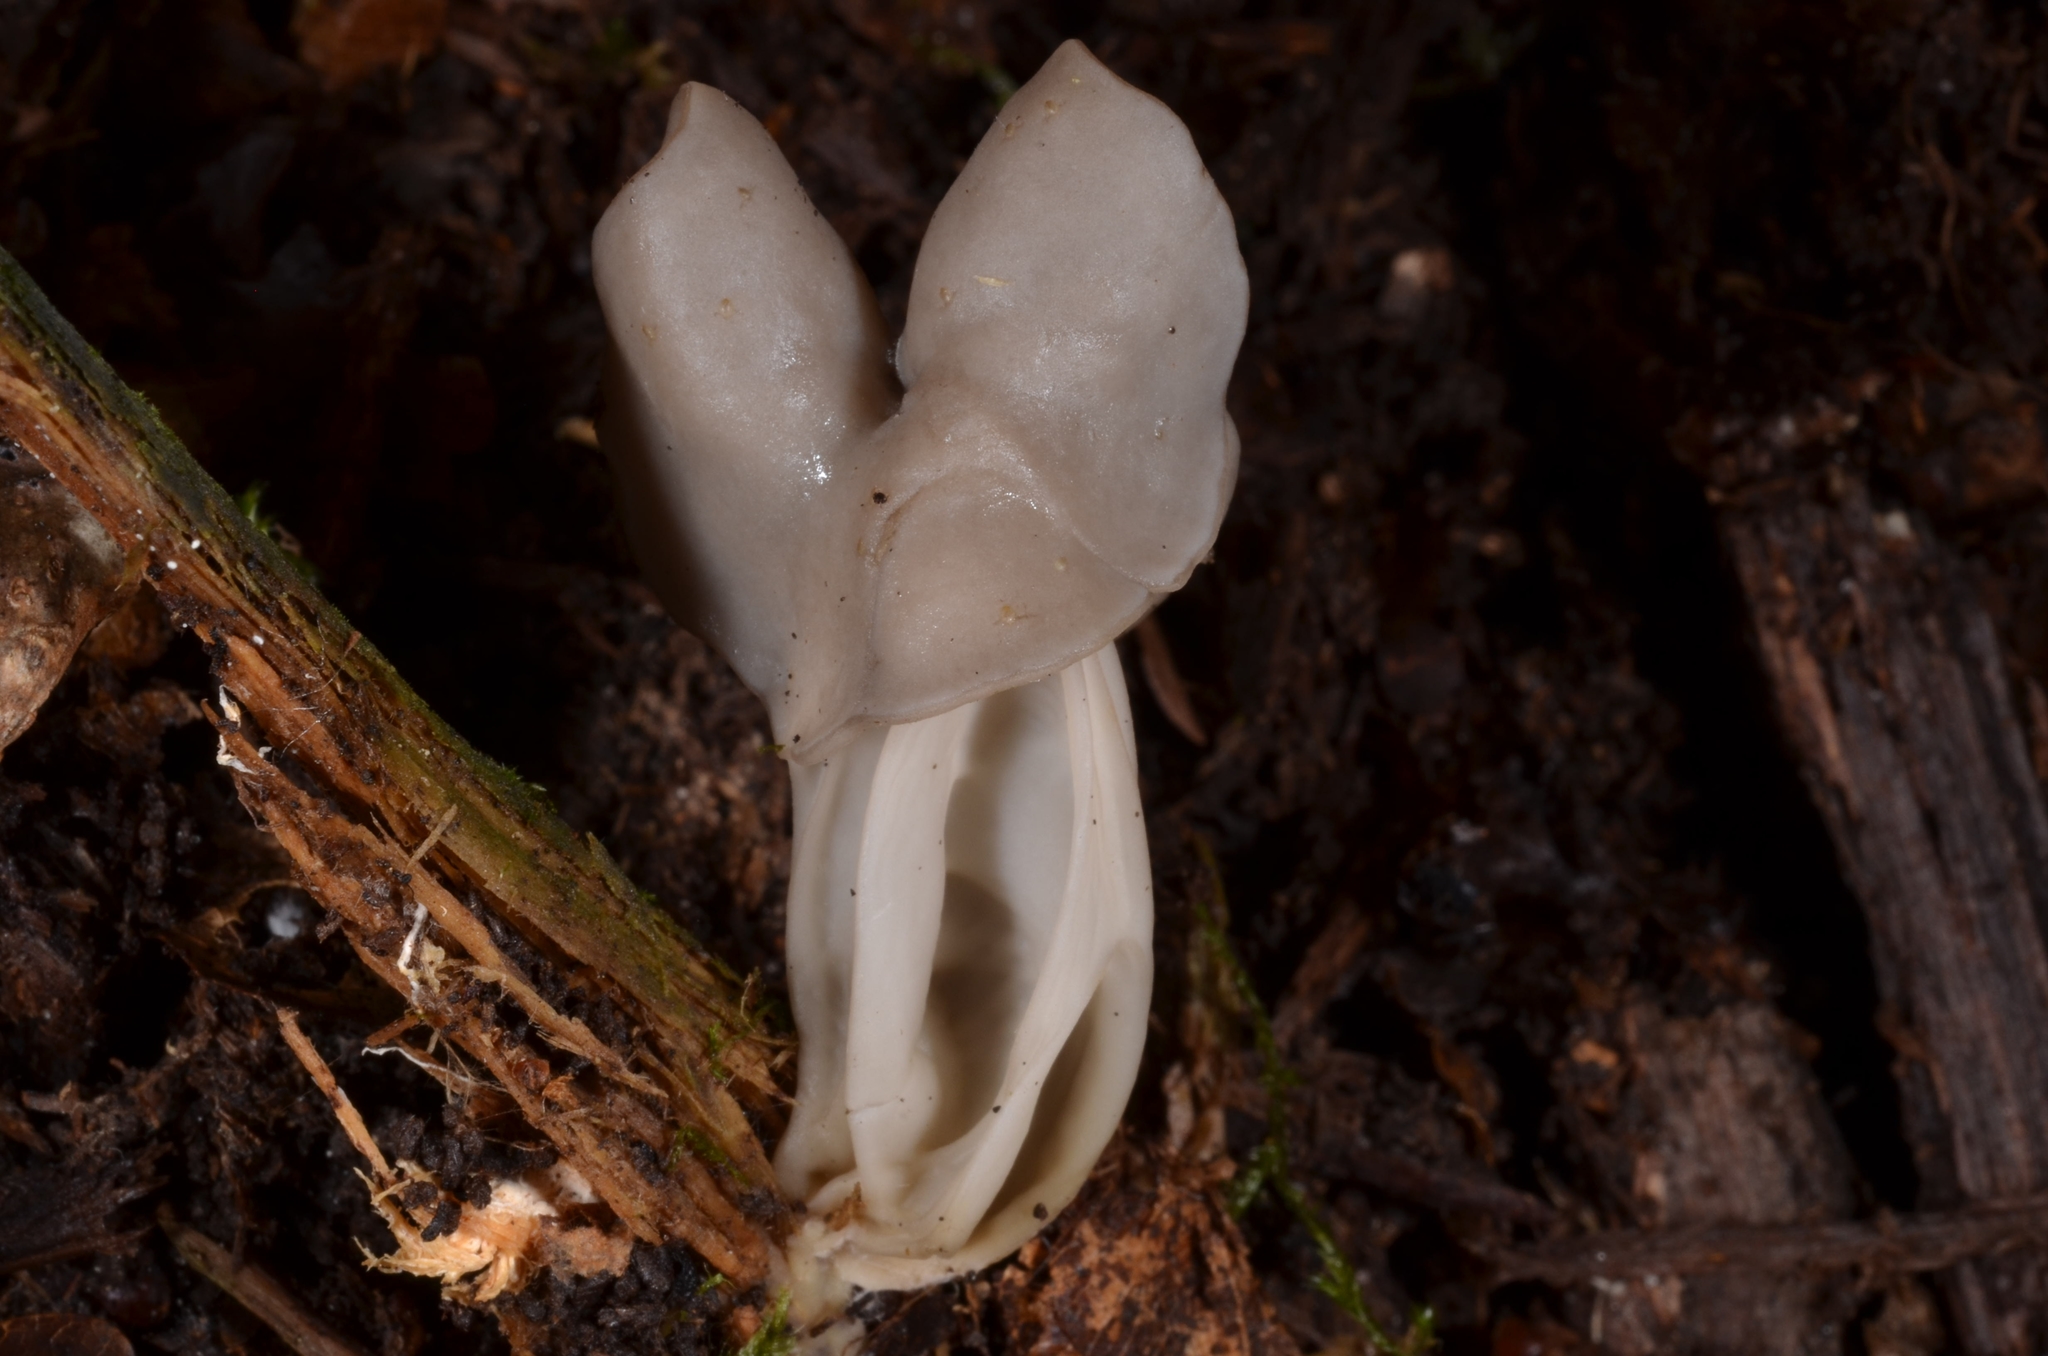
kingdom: Fungi
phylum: Ascomycota
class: Pezizomycetes
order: Pezizales
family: Helvellaceae
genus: Helvella
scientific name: Helvella lacunosa
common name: Elfin saddle
